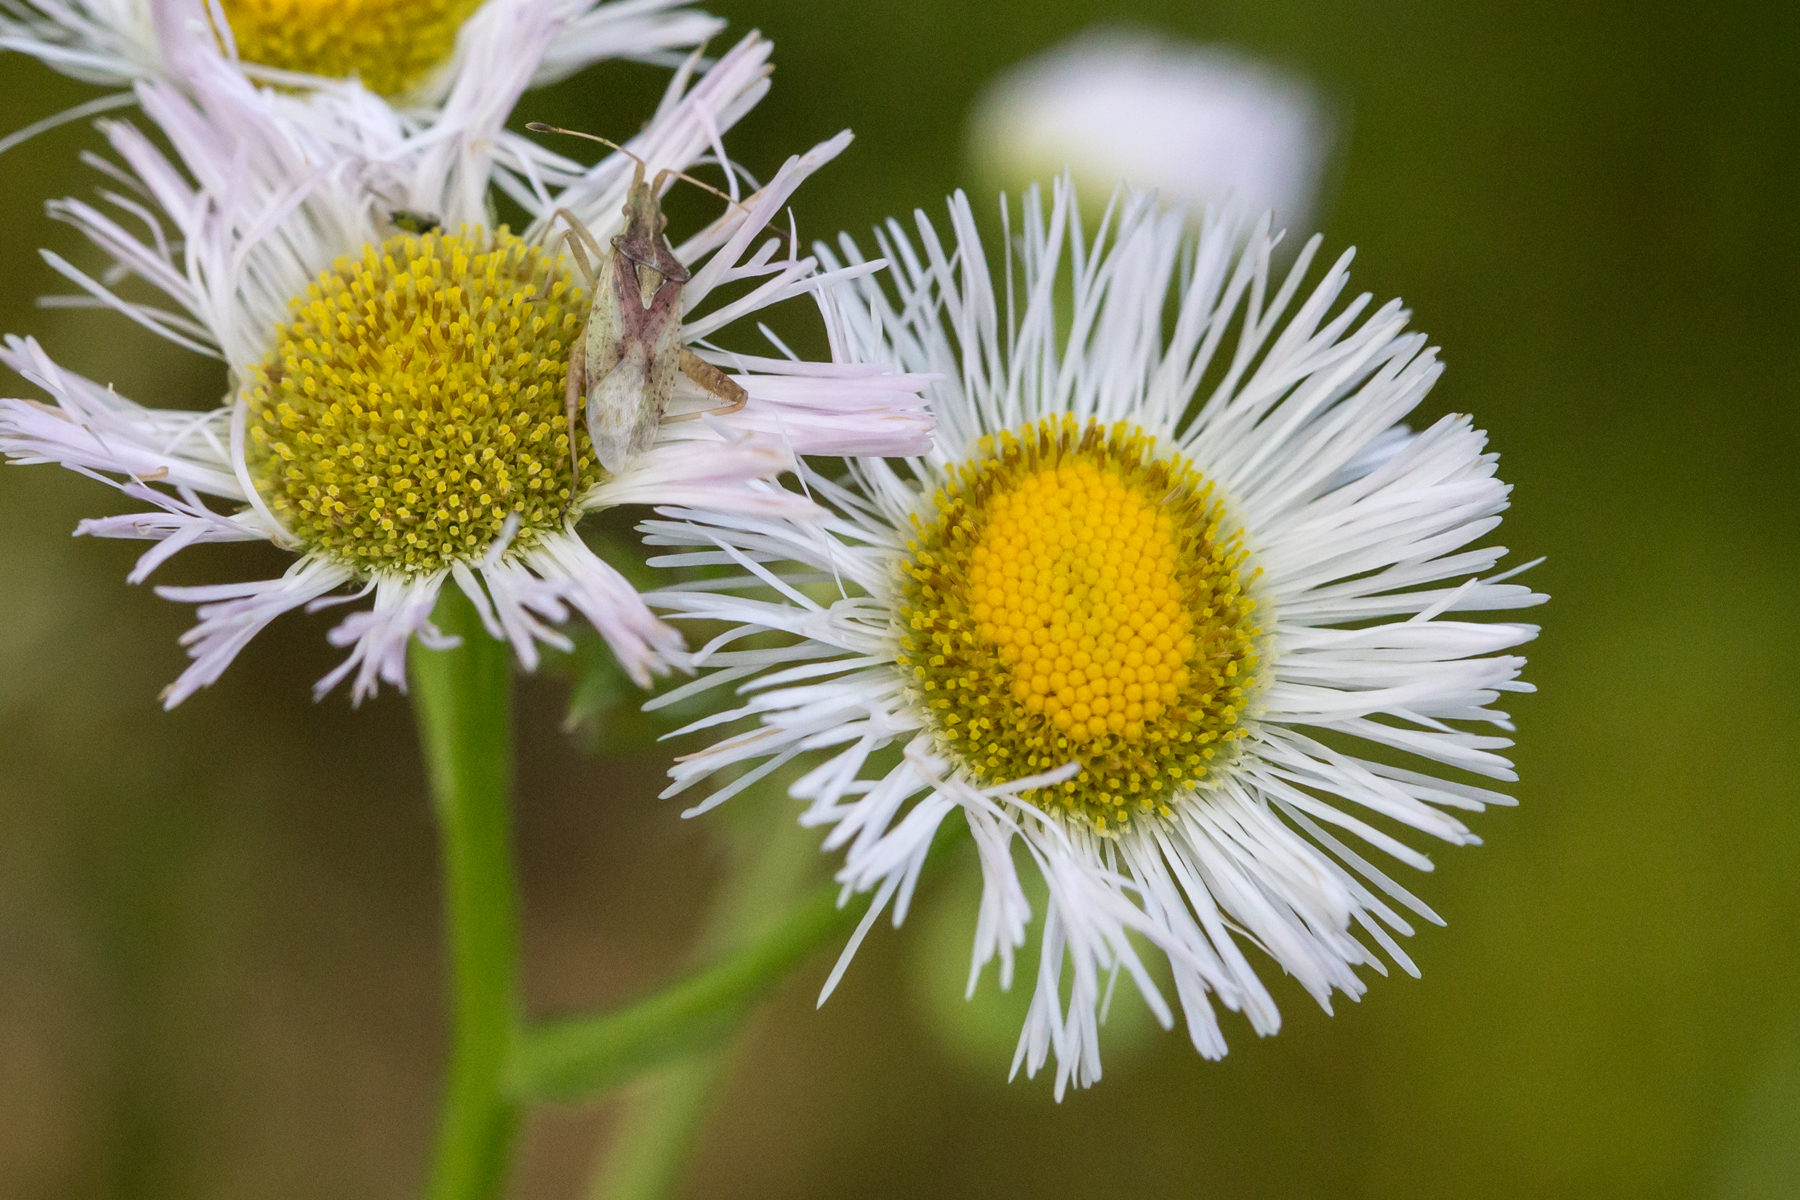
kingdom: Plantae
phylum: Tracheophyta
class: Magnoliopsida
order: Asterales
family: Asteraceae
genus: Erigeron
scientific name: Erigeron philadelphicus
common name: Robin's-plantain
